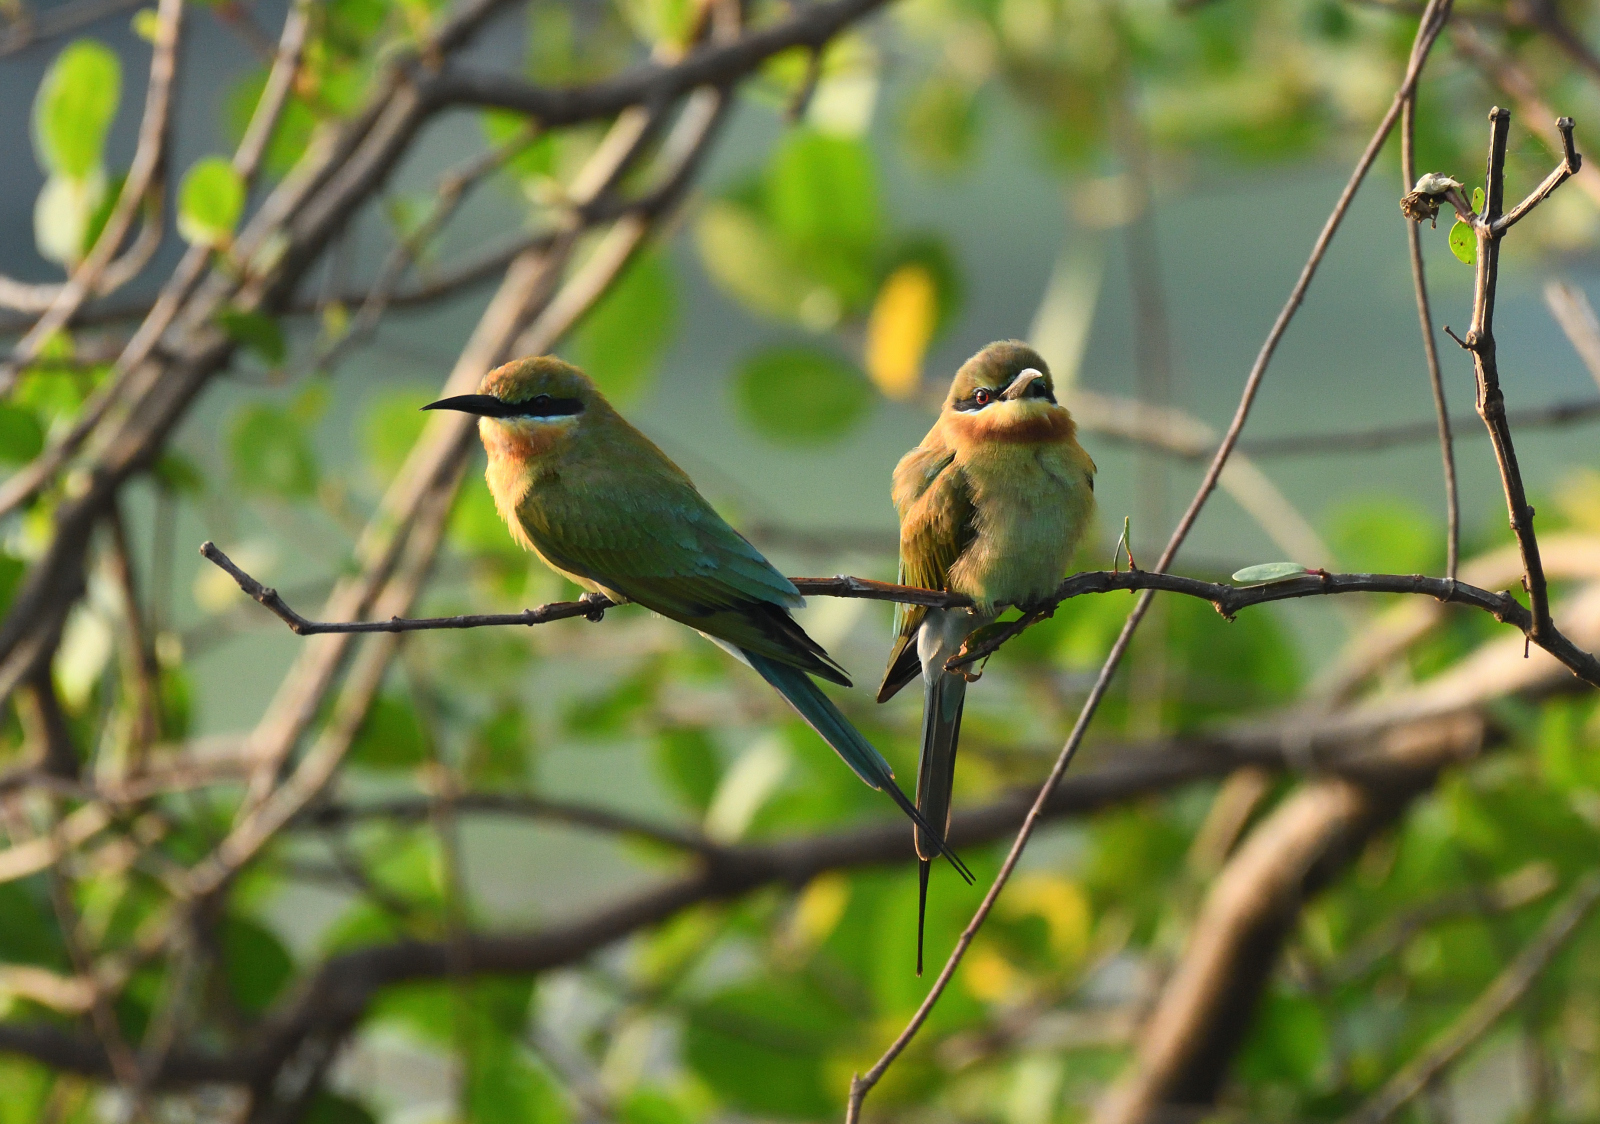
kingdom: Animalia
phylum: Chordata
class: Aves
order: Coraciiformes
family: Meropidae
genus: Merops
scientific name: Merops philippinus
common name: Blue-tailed bee-eater
